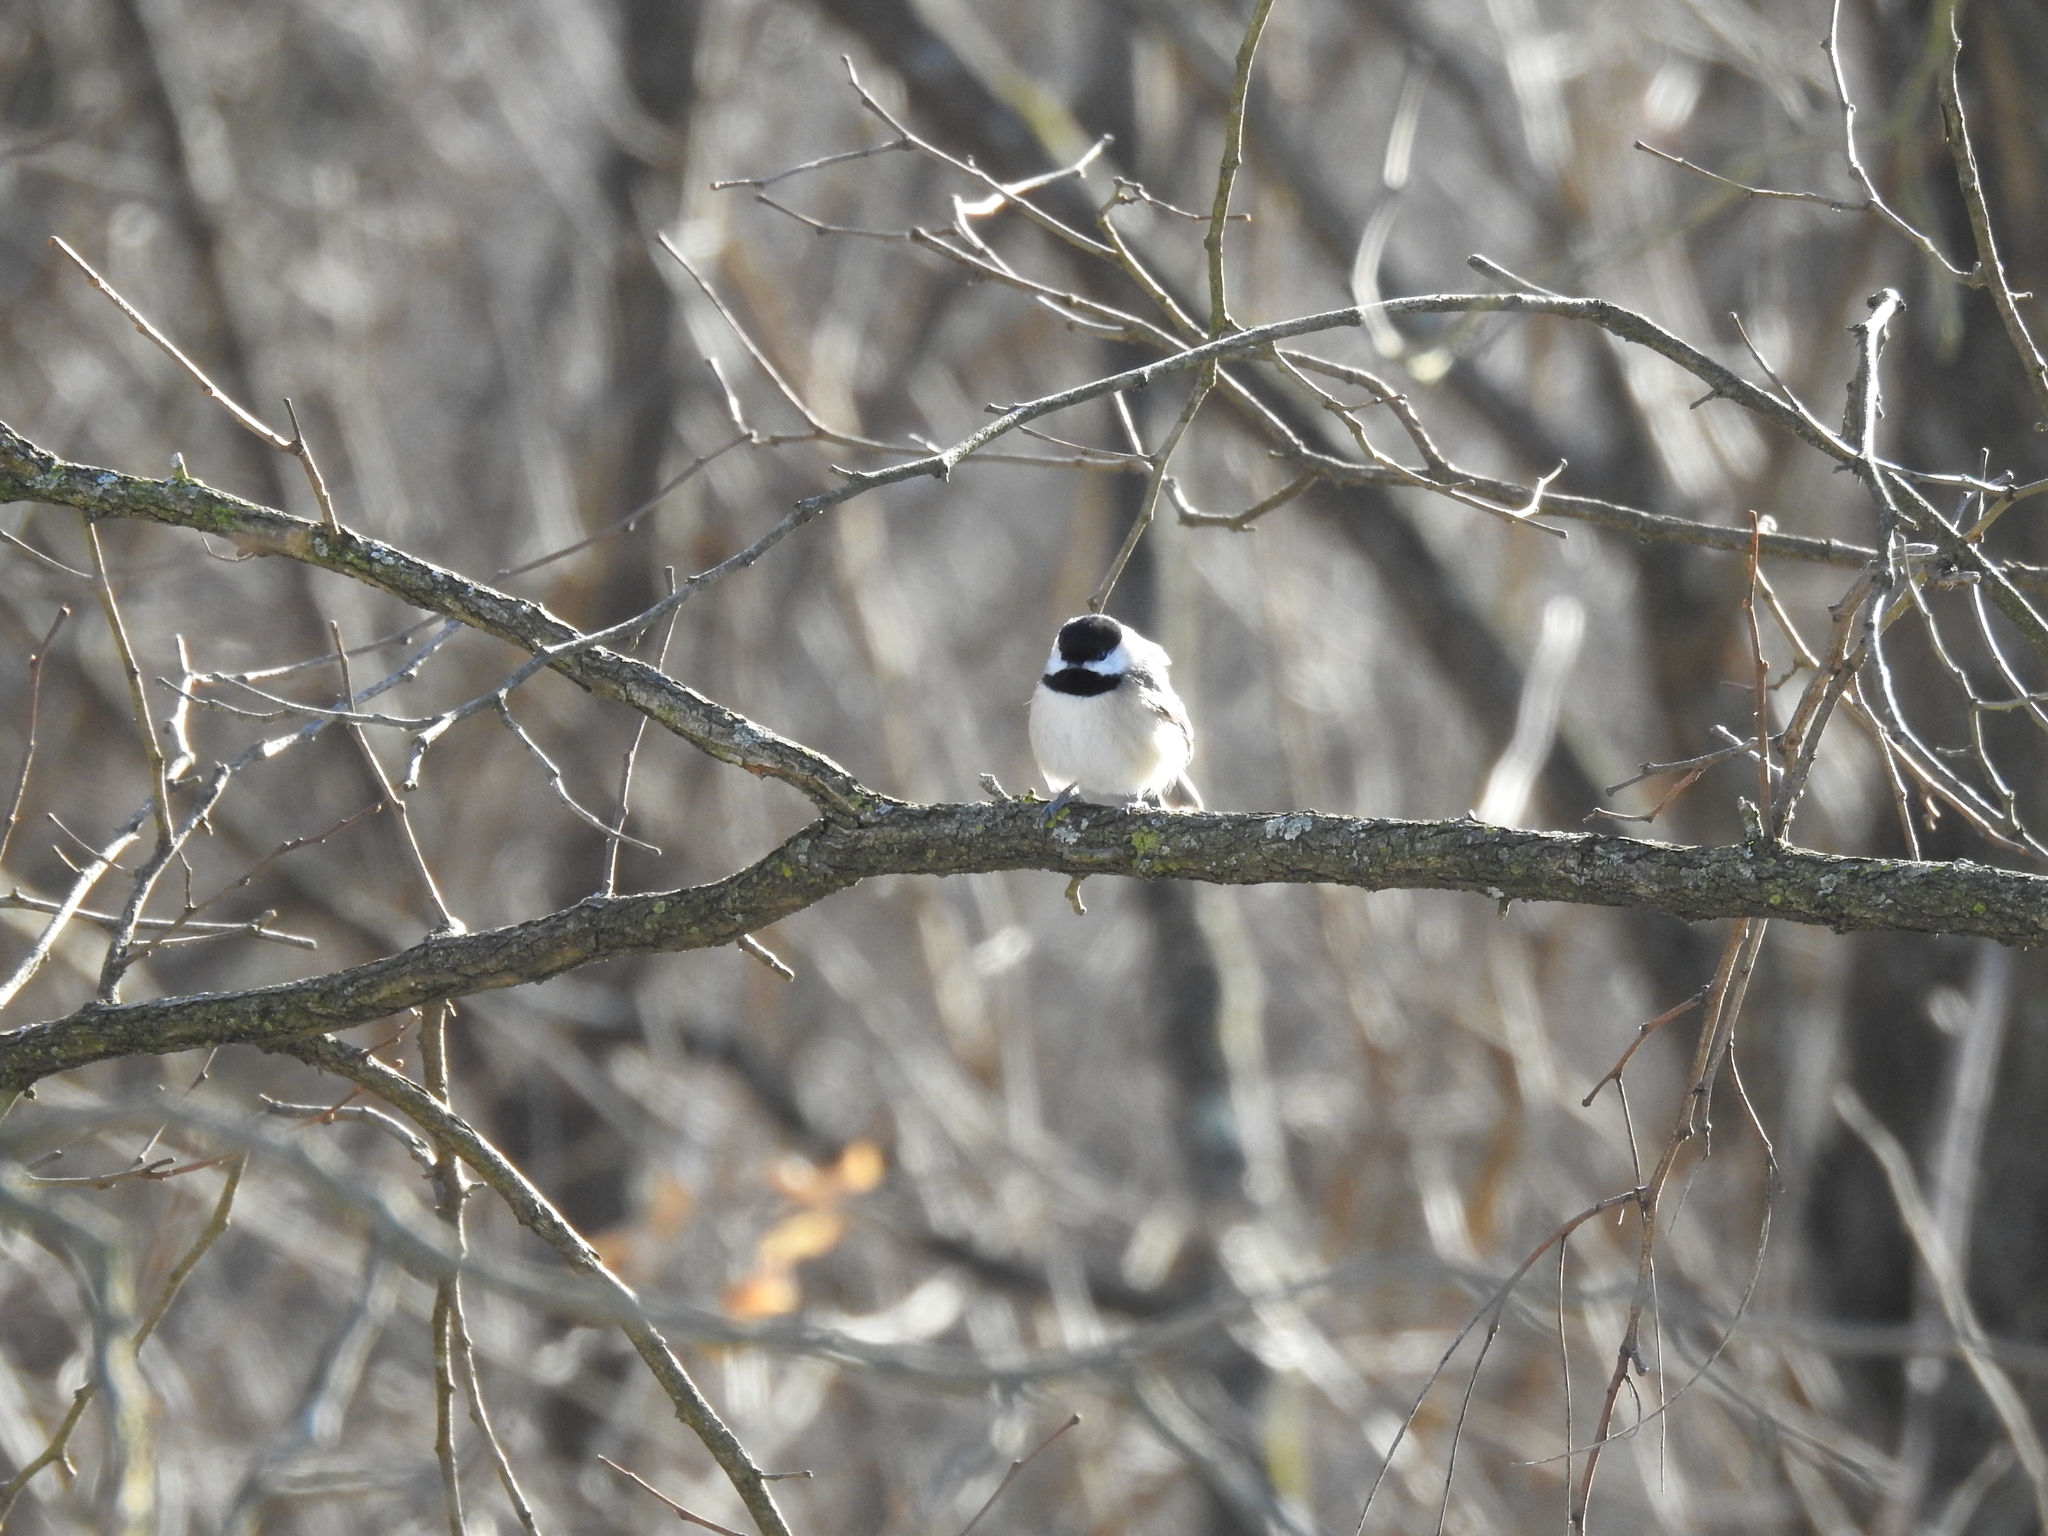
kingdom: Animalia
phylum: Chordata
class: Aves
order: Passeriformes
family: Paridae
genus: Poecile
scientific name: Poecile carolinensis
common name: Carolina chickadee
